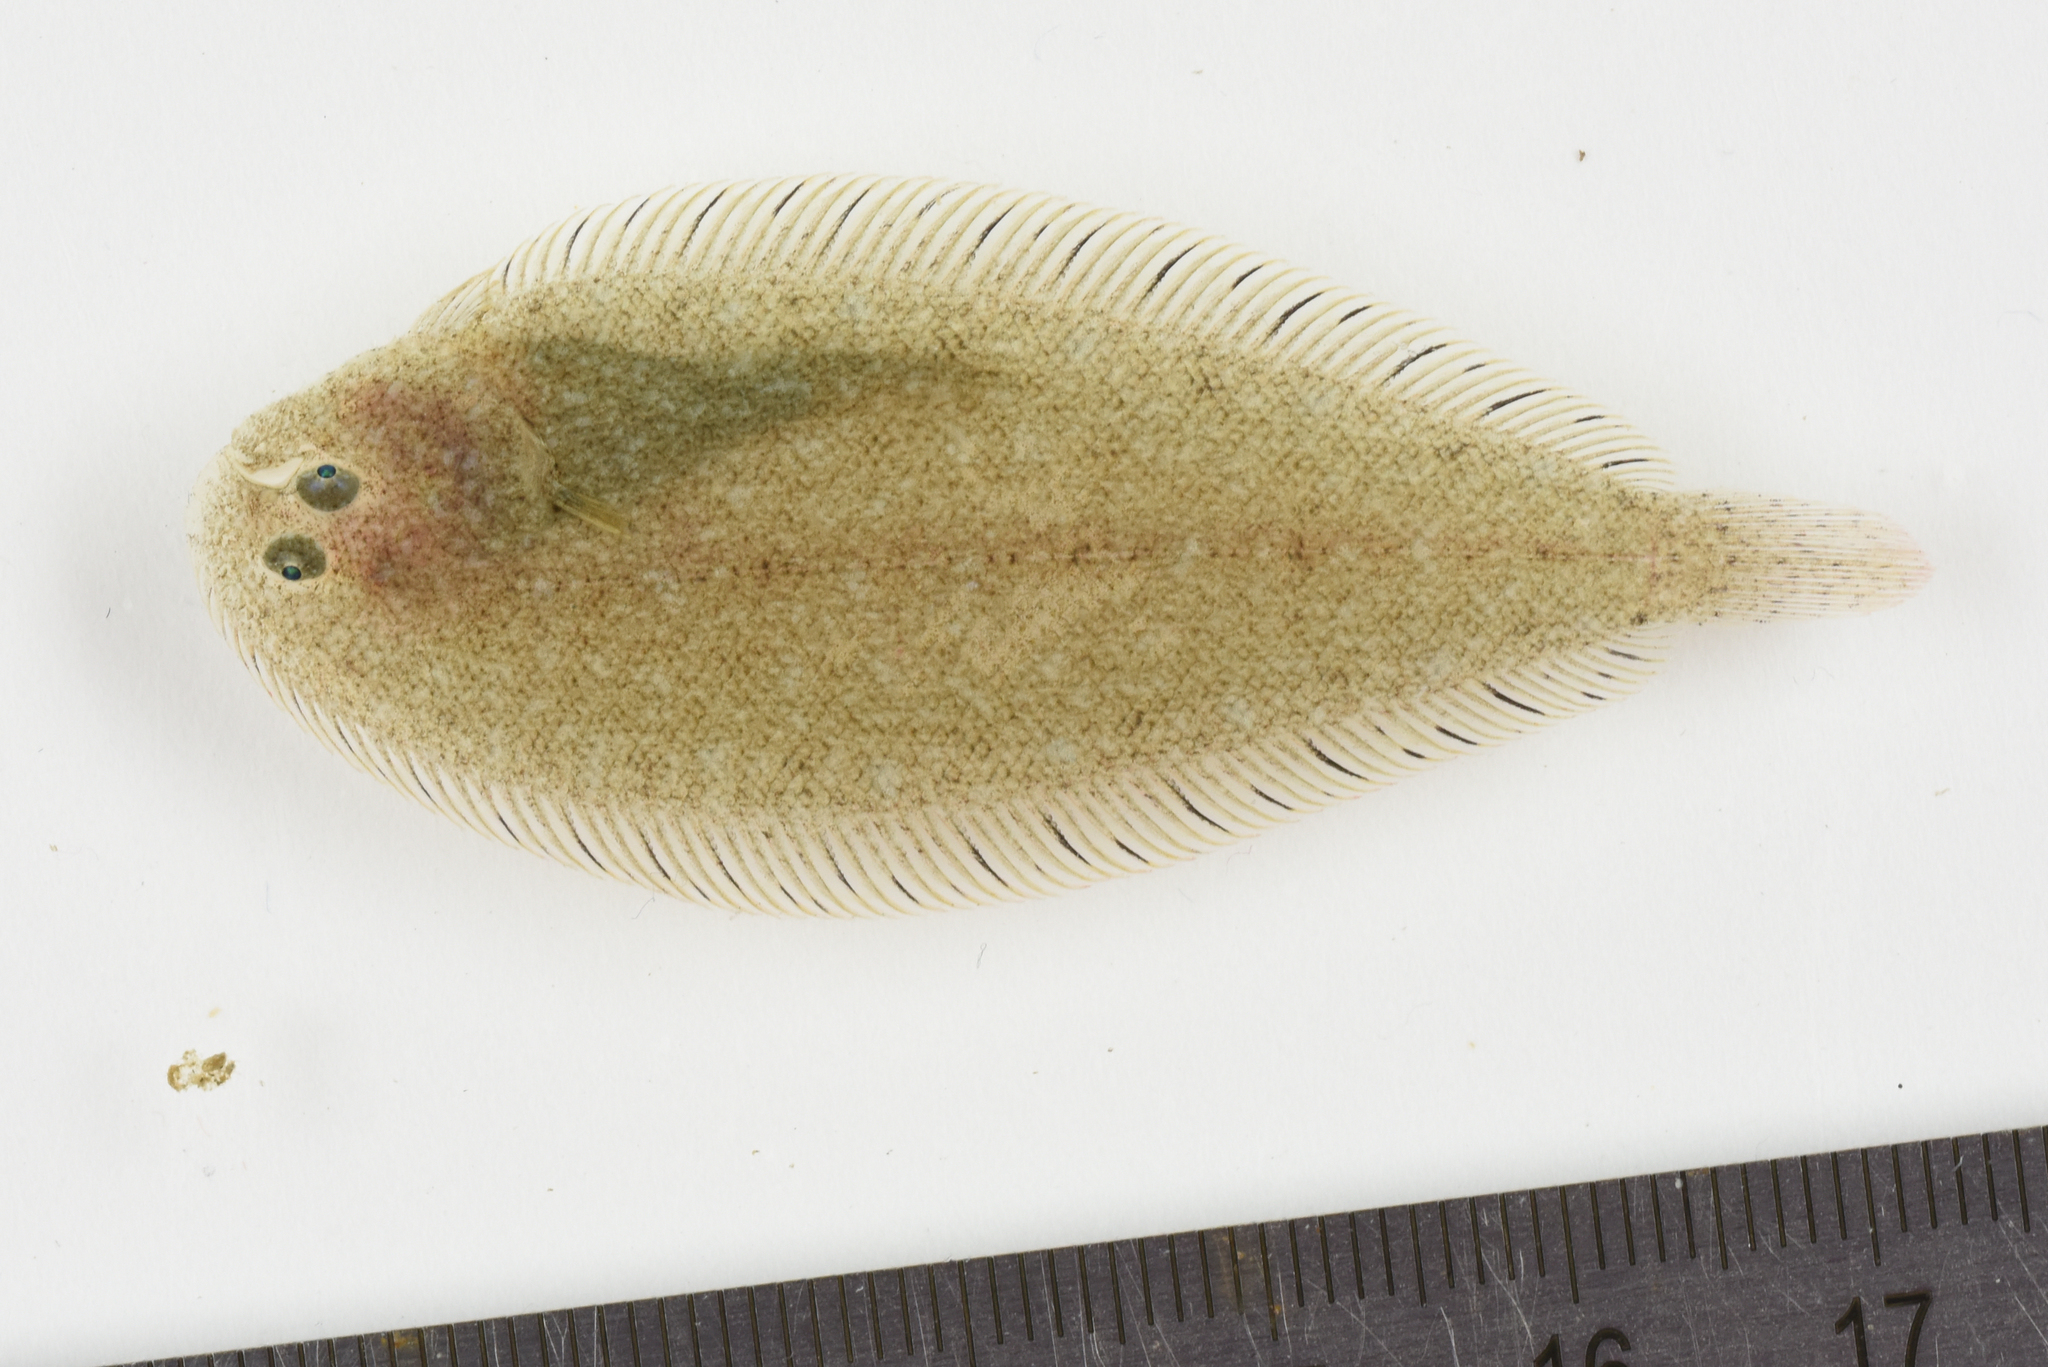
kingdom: Animalia
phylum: Chordata
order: Pleuronectiformes
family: Soleidae
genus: Buglossidium
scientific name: Buglossidium luteum
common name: Solenette
